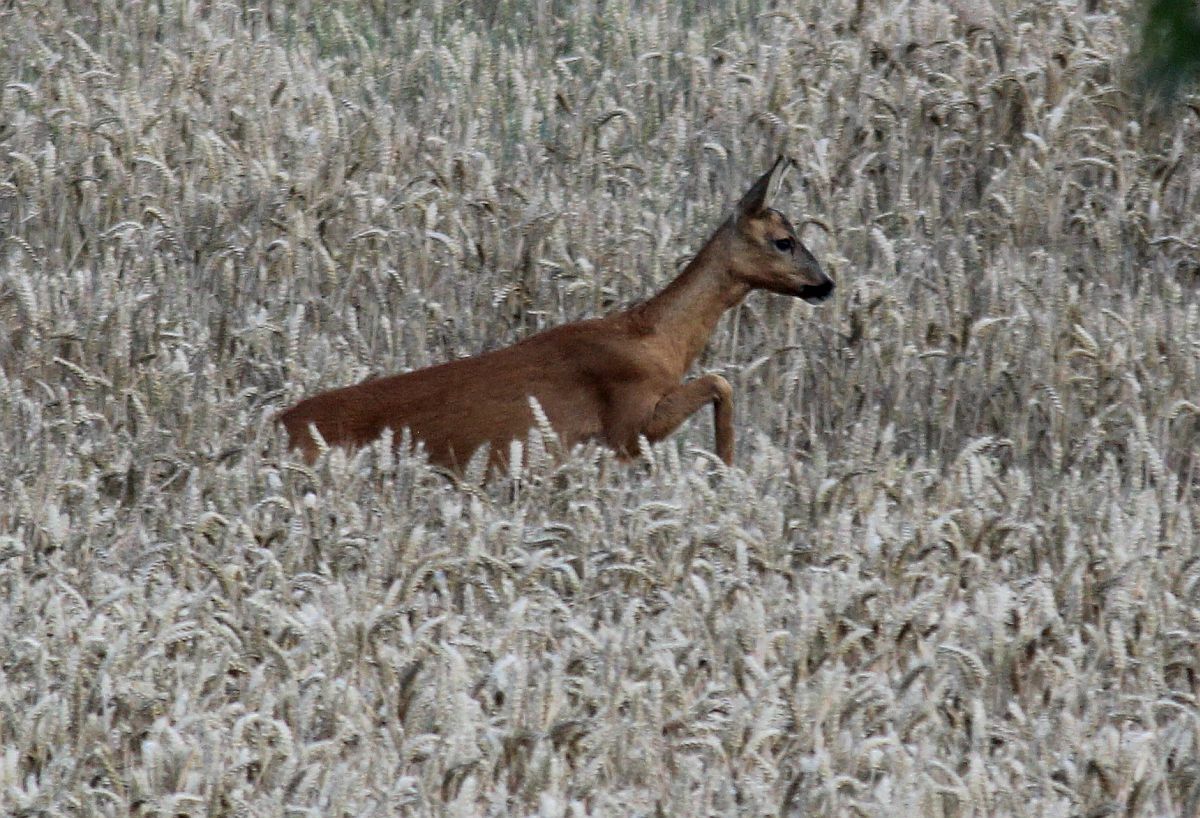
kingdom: Animalia
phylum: Chordata
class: Mammalia
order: Artiodactyla
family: Cervidae
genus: Capreolus
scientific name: Capreolus capreolus
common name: Western roe deer
